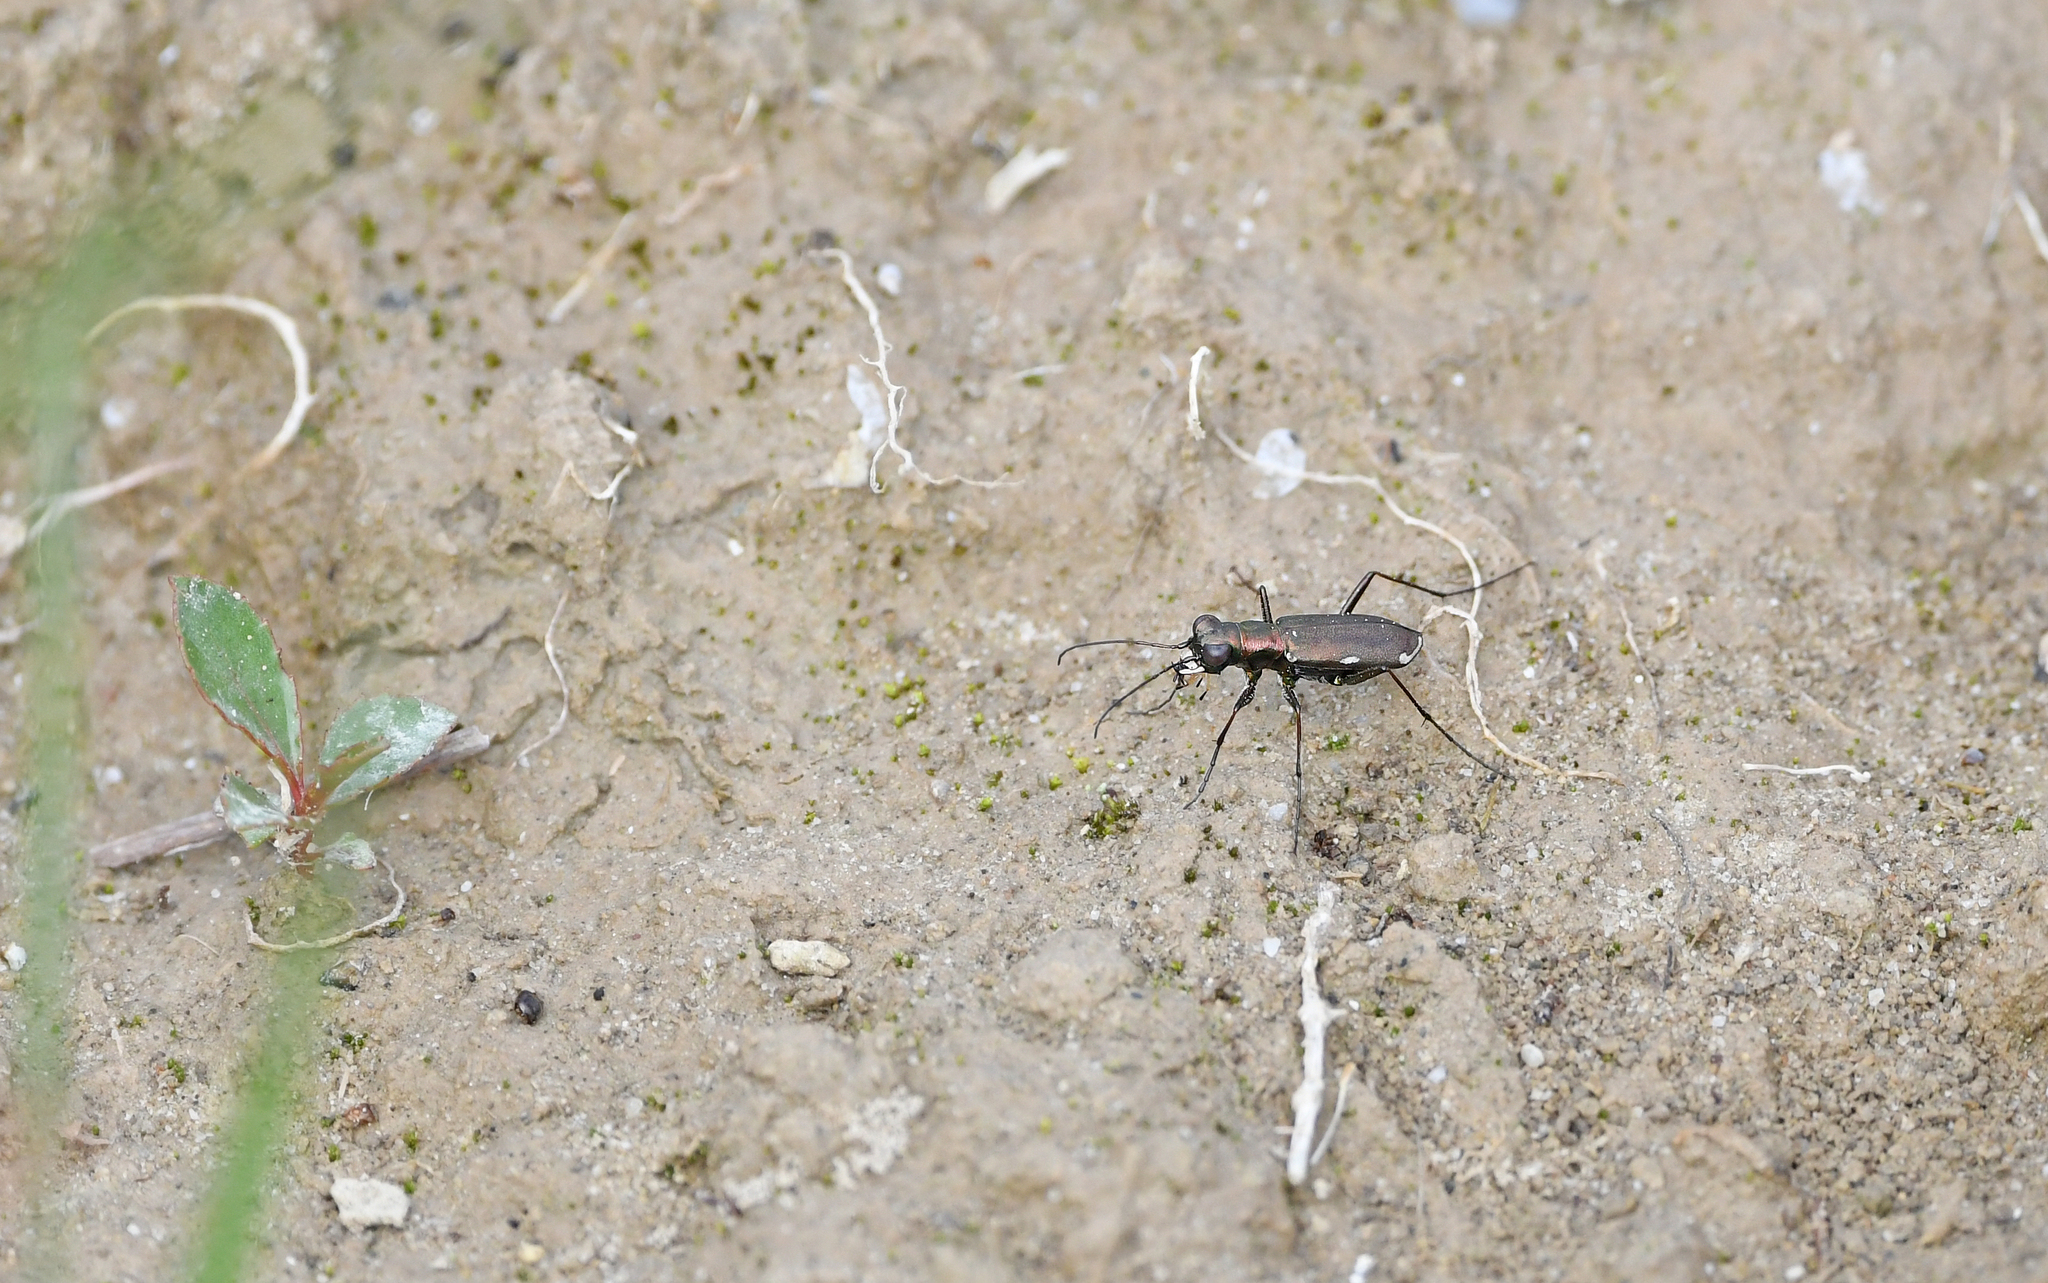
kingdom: Animalia
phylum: Arthropoda
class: Insecta
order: Coleoptera
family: Carabidae
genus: Cylindera
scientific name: Cylindera germanica
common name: Cliff tiger beetle
